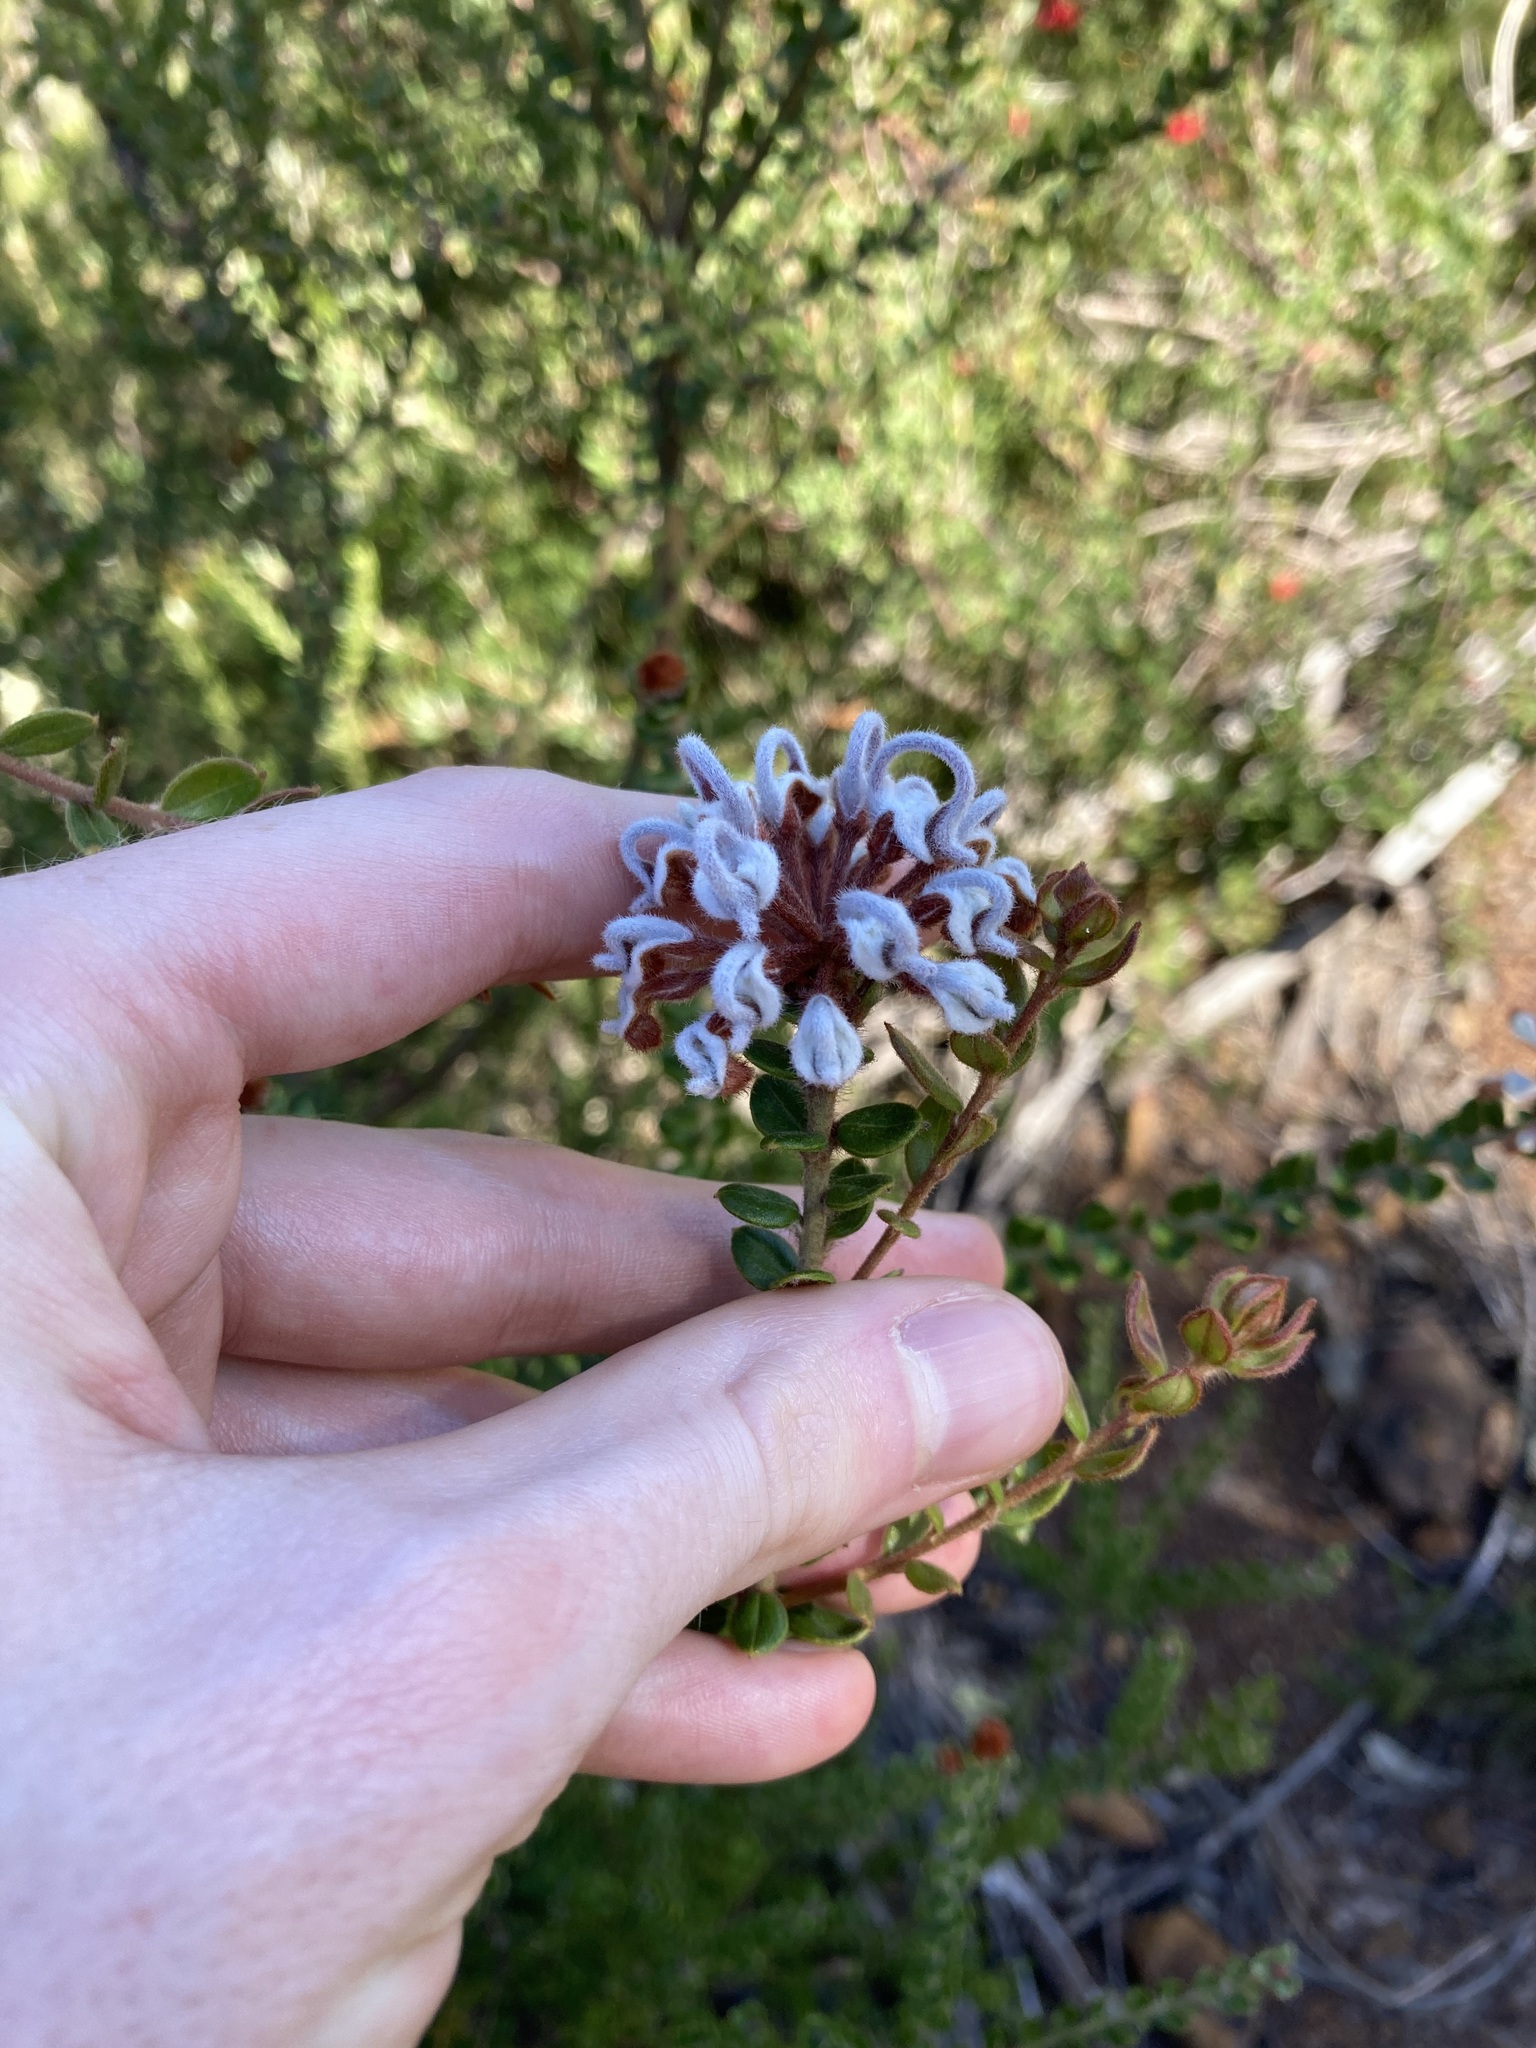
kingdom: Plantae
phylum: Tracheophyta
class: Magnoliopsida
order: Proteales
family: Proteaceae
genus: Grevillea
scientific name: Grevillea buxifolia
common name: Grey spiderflower
